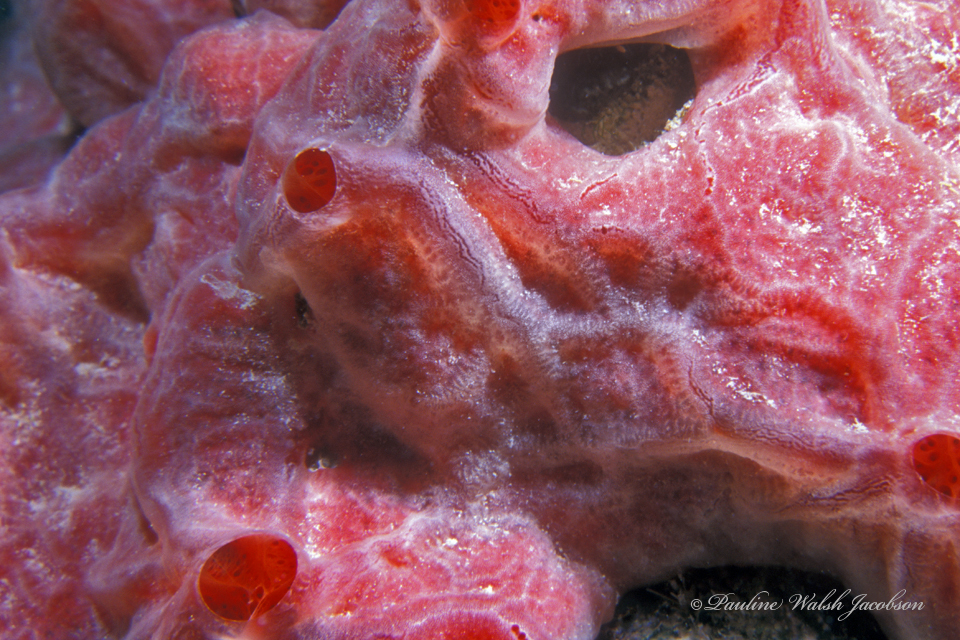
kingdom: Animalia
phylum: Porifera
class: Demospongiae
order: Poecilosclerida
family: Crambeidae
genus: Monanchora
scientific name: Monanchora arbuscula
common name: Red-white marbled sponge
